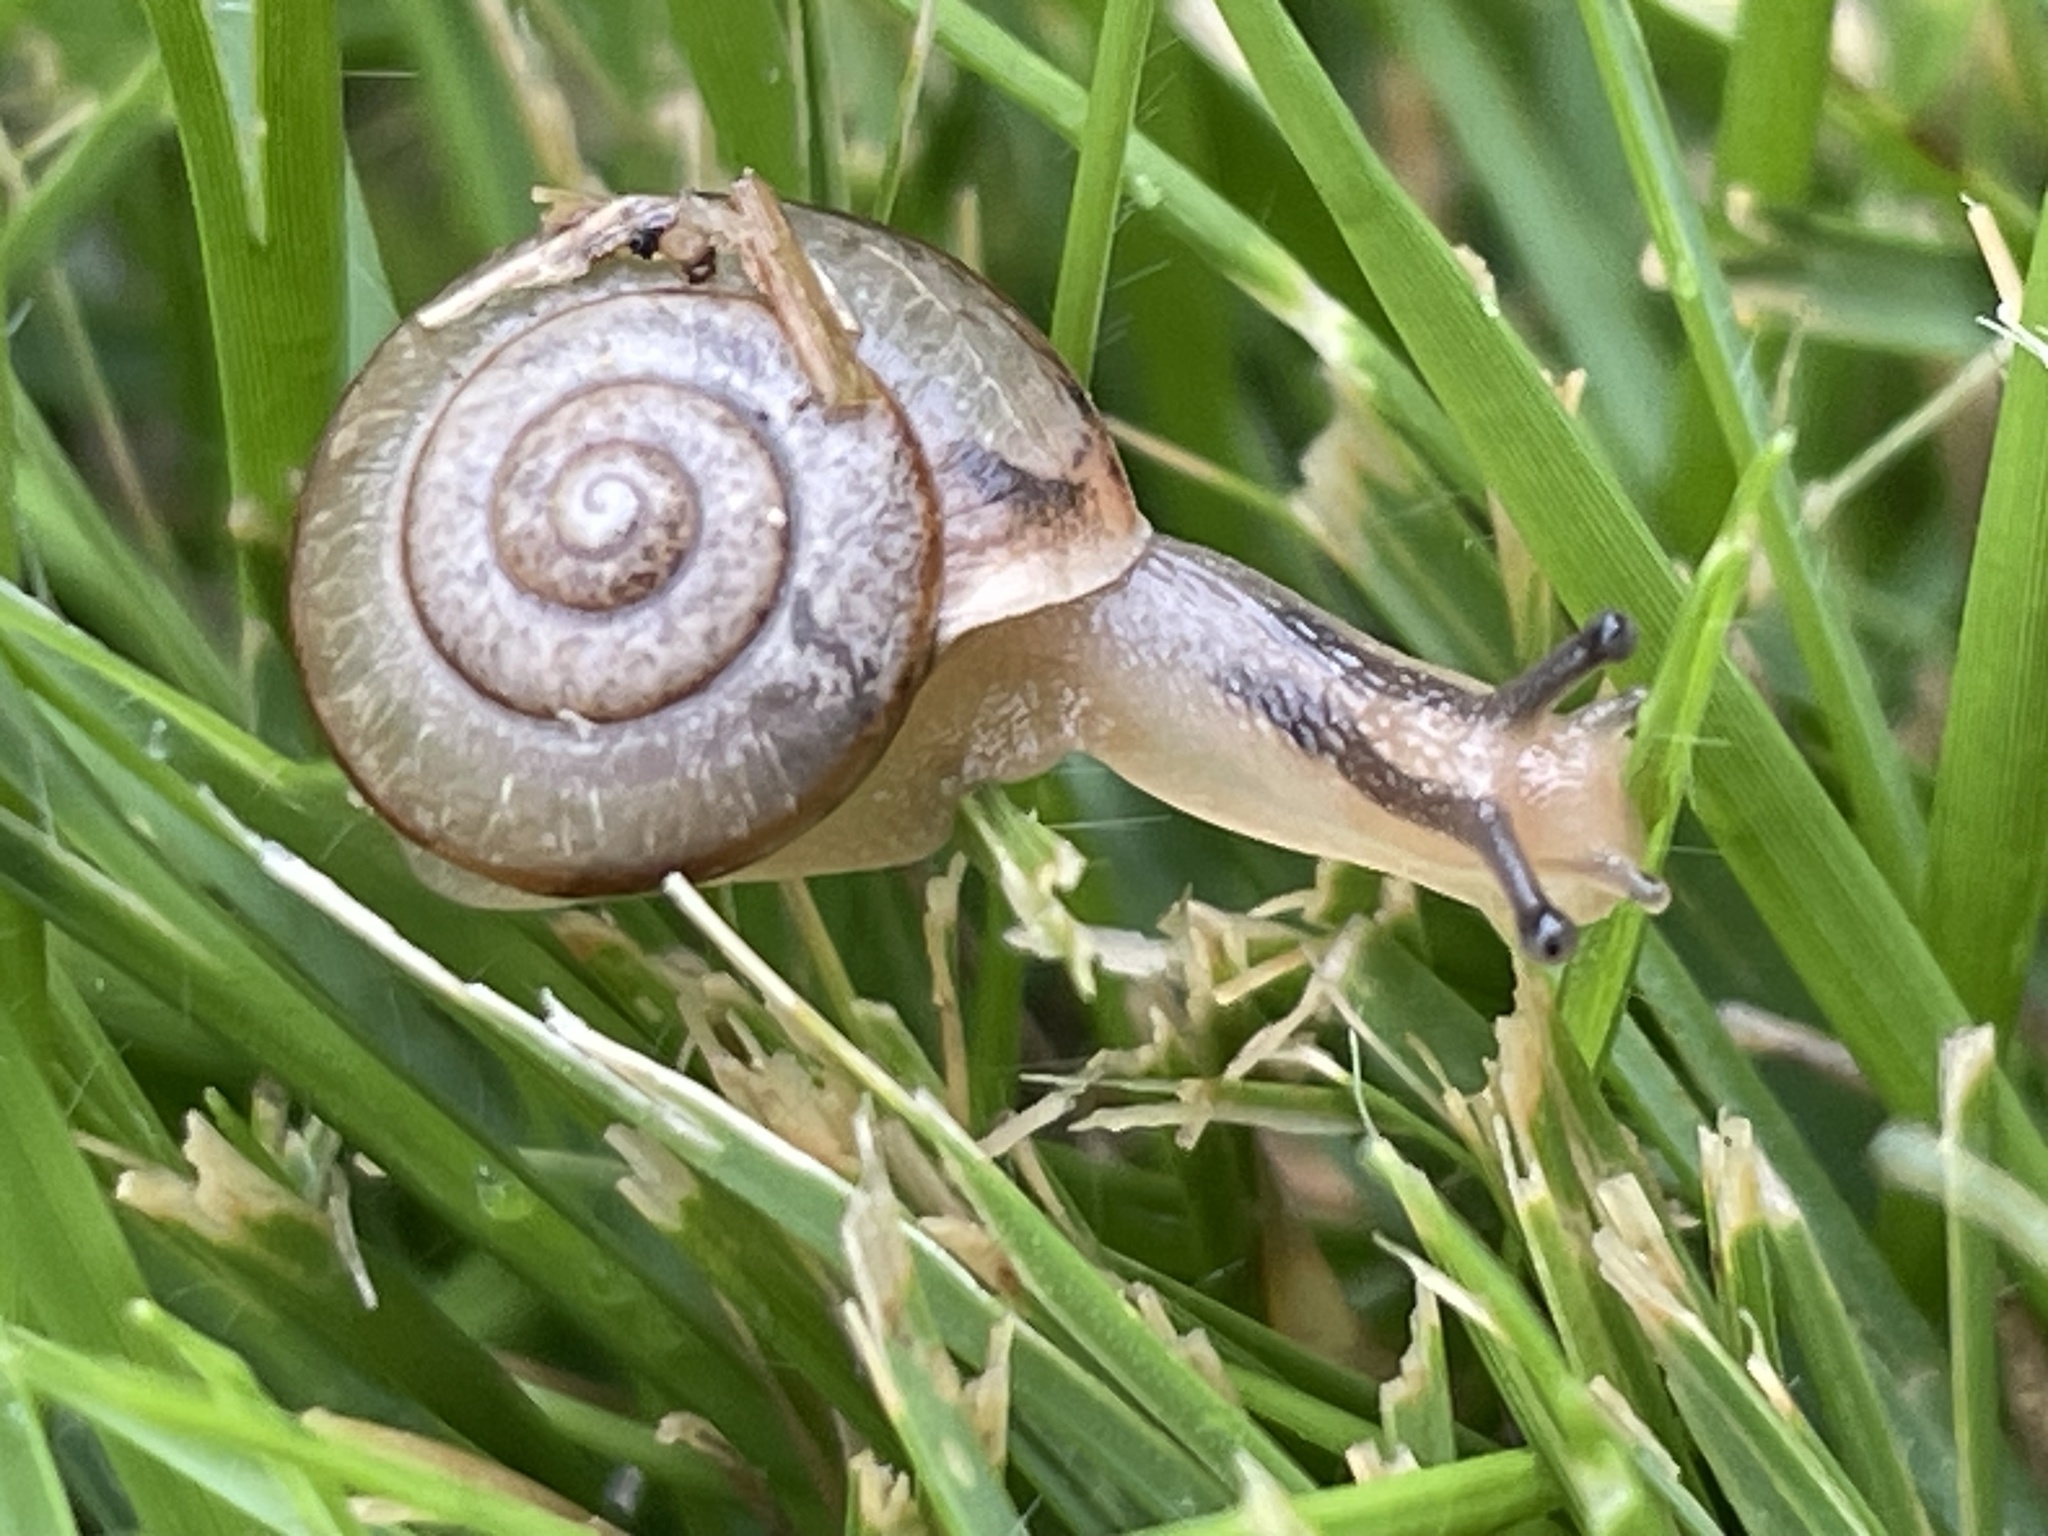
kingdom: Animalia
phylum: Mollusca
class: Gastropoda
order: Stylommatophora
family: Camaenidae
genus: Bradybaena
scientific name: Bradybaena similaris
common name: Asian trampsnail
